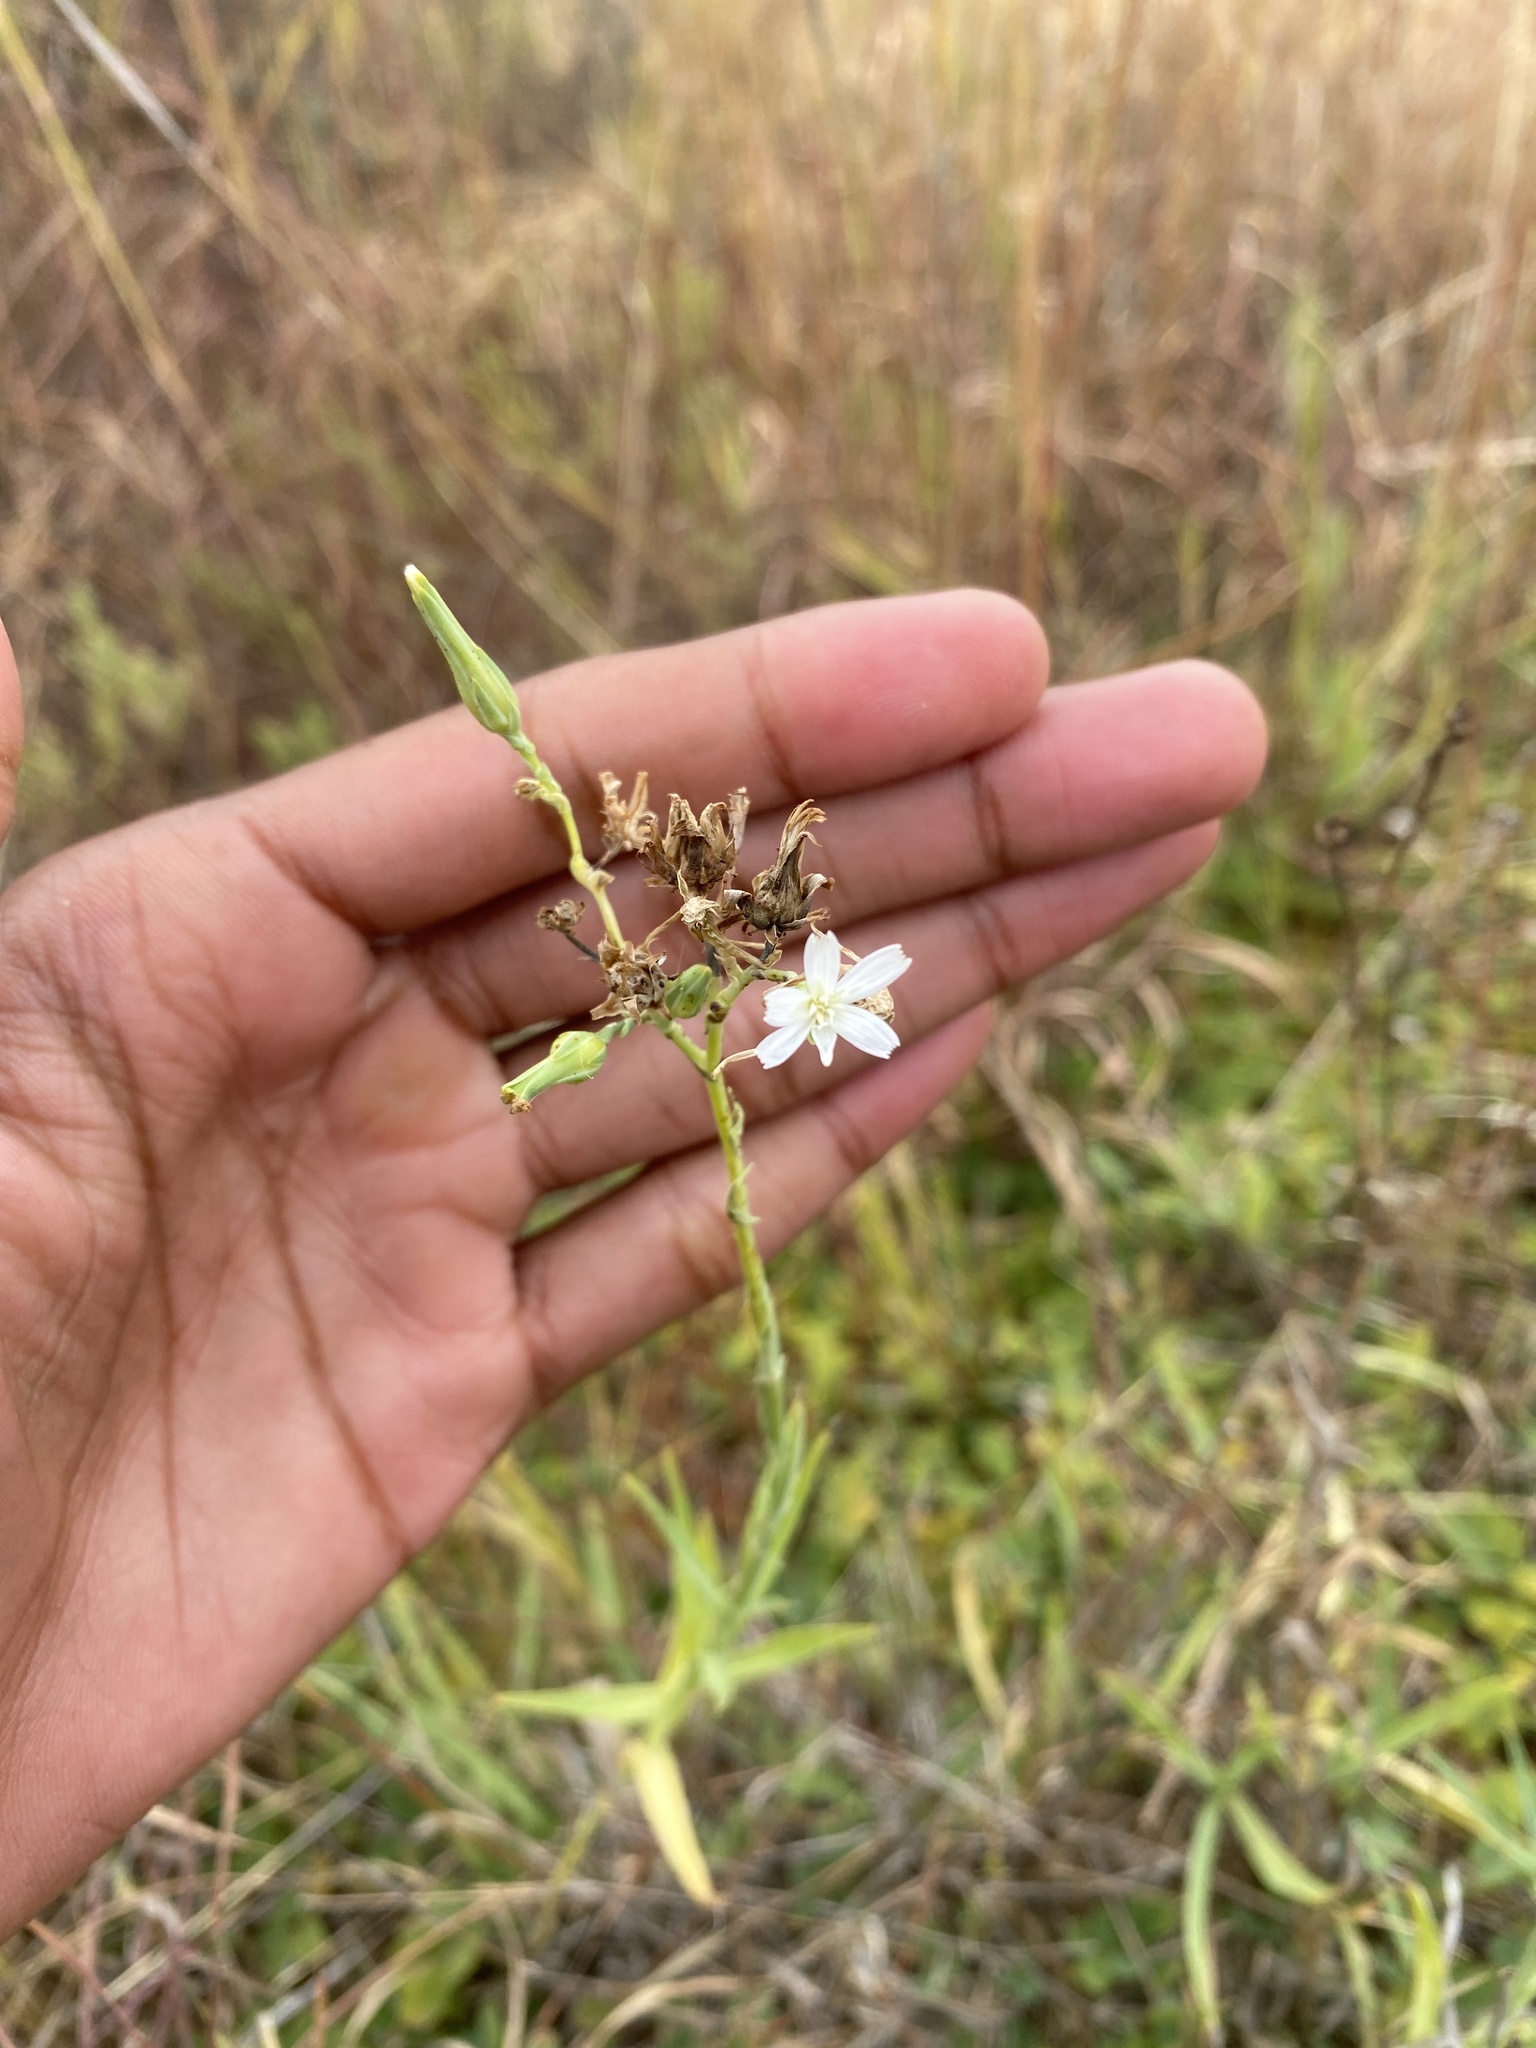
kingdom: Plantae
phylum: Tracheophyta
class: Magnoliopsida
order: Asterales
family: Asteraceae
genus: Lactuca
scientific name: Lactuca inermis
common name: Wild lettuce
